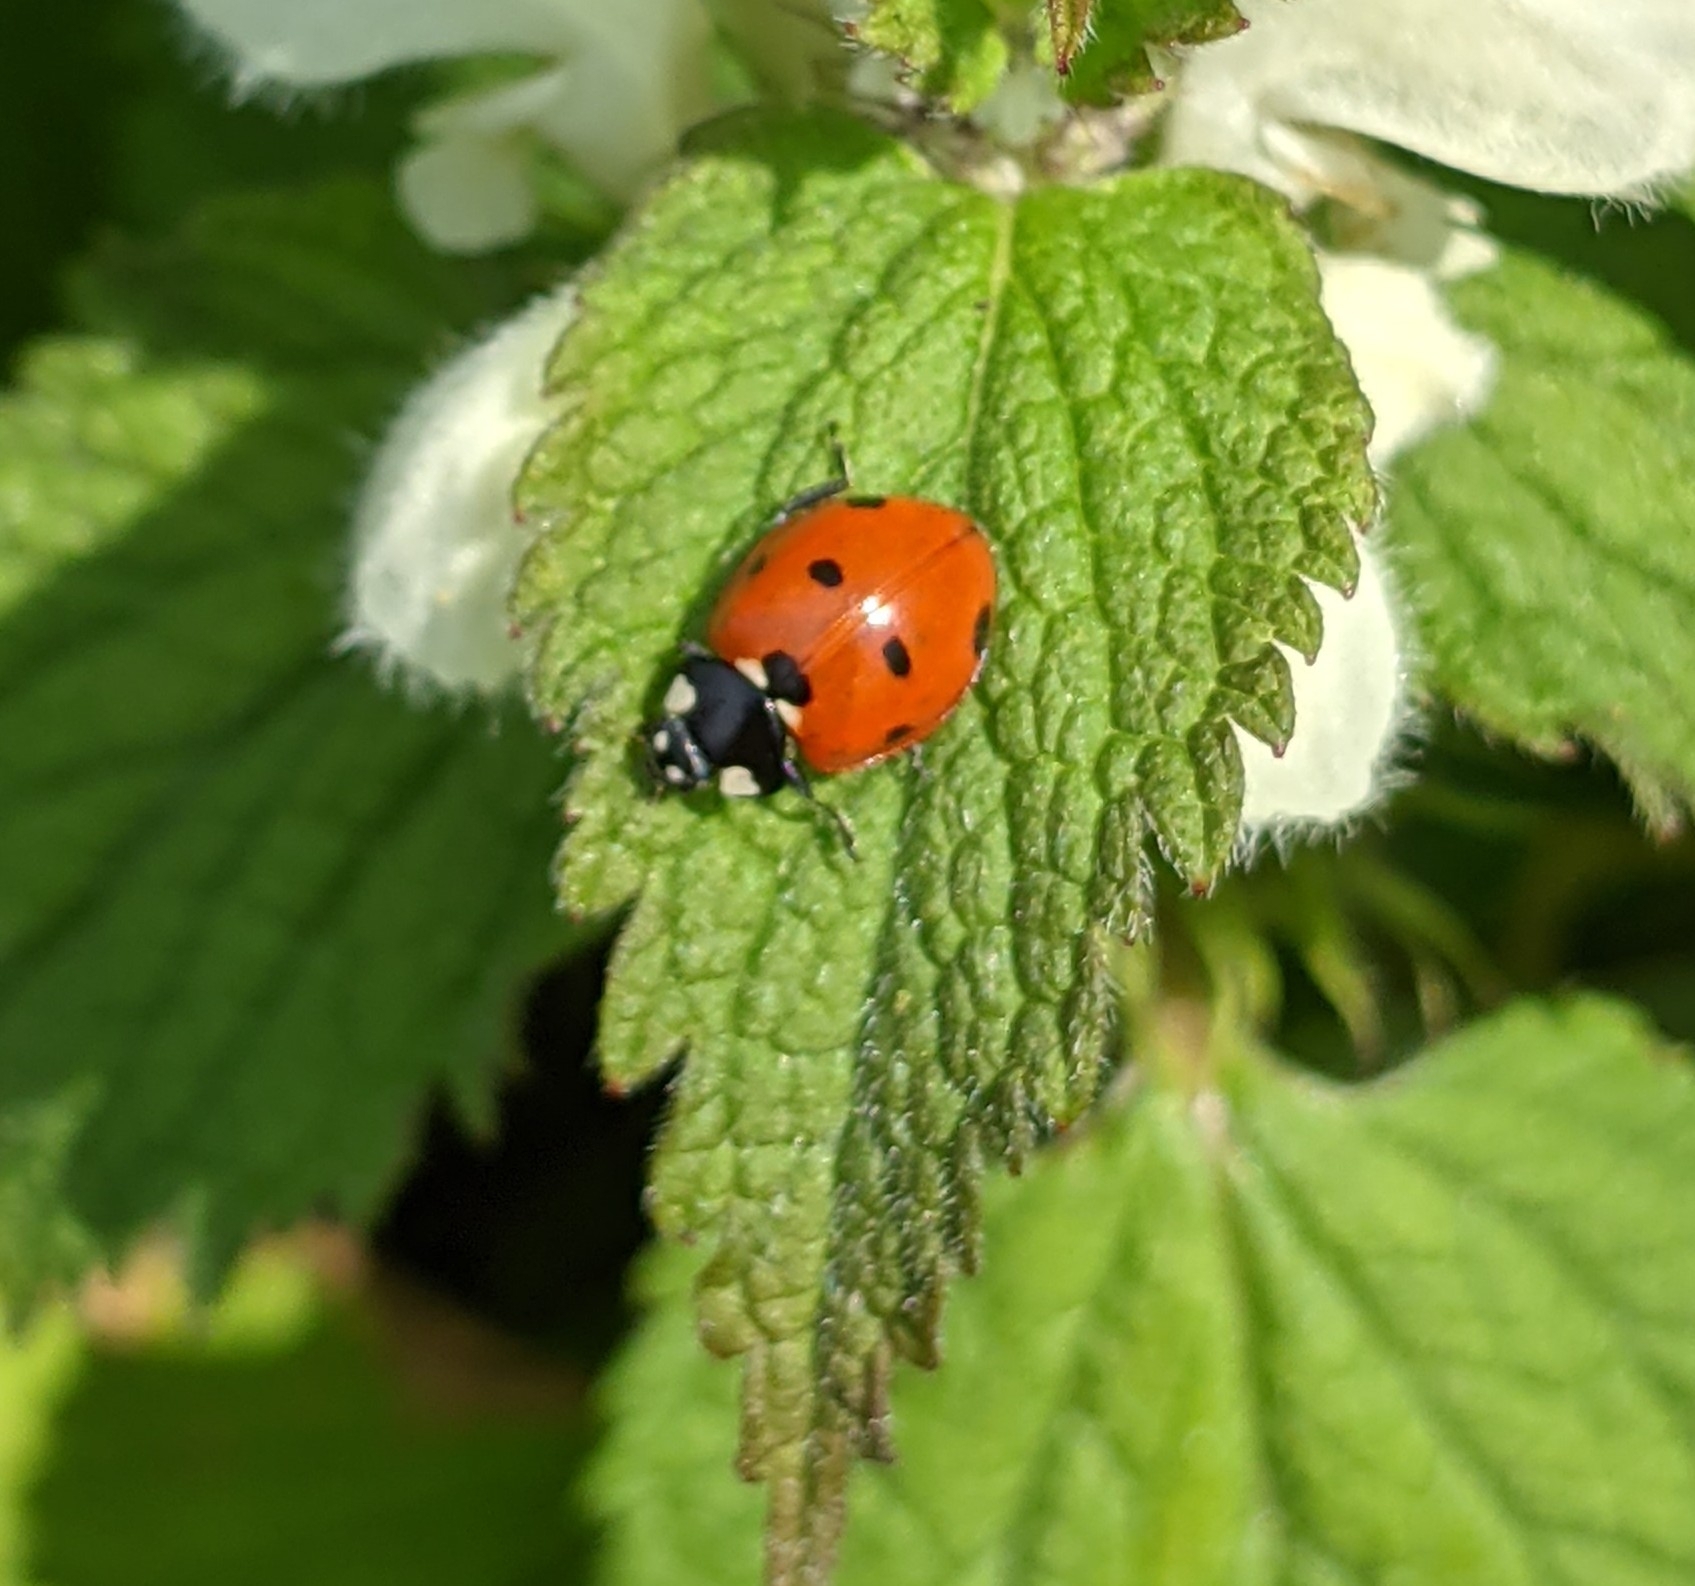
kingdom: Animalia
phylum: Arthropoda
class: Insecta
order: Coleoptera
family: Coccinellidae
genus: Coccinella
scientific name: Coccinella septempunctata
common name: Sevenspotted lady beetle
